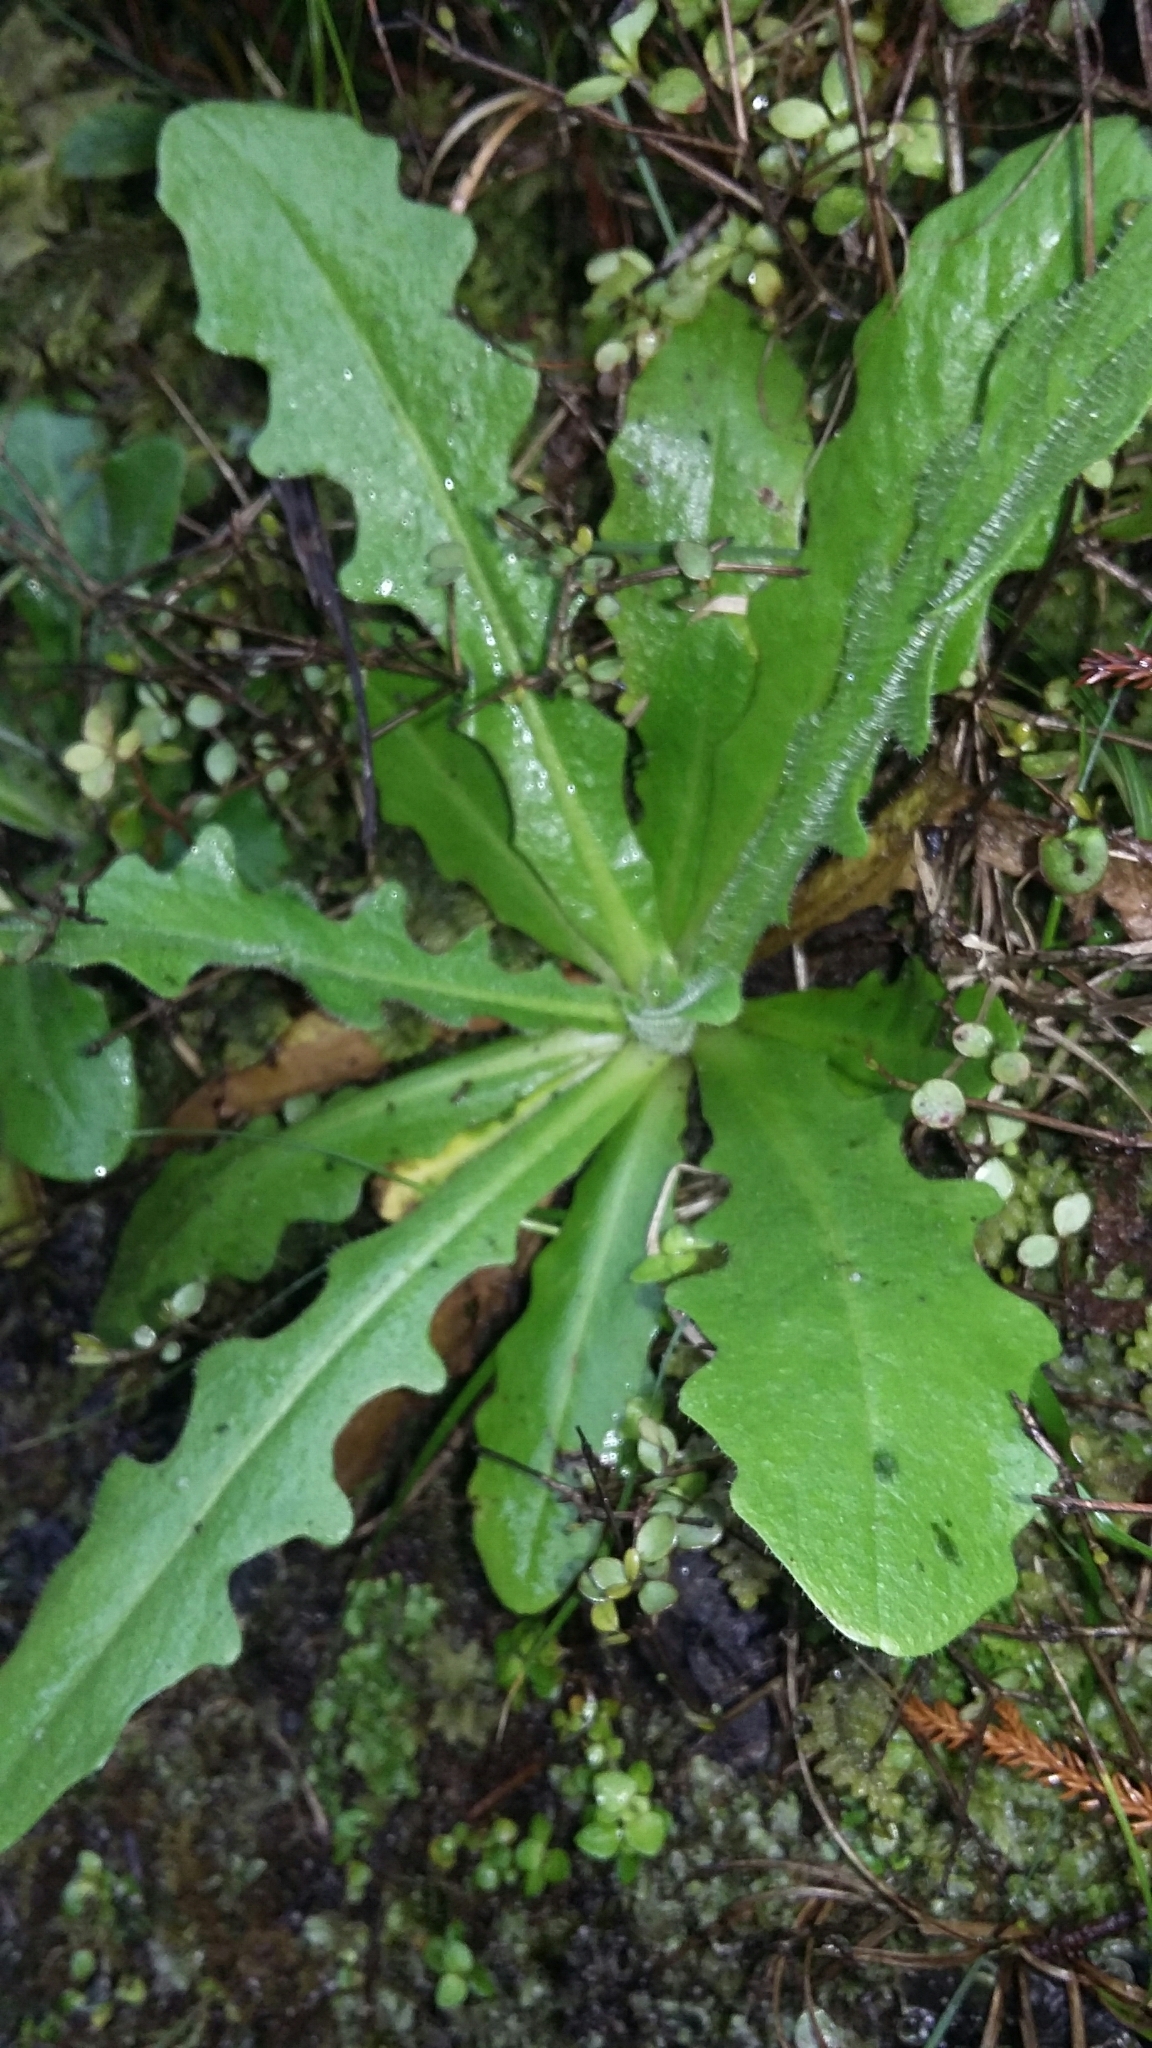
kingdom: Plantae
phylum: Tracheophyta
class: Magnoliopsida
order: Asterales
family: Asteraceae
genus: Hypochaeris
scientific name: Hypochaeris radicata
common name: Flatweed
